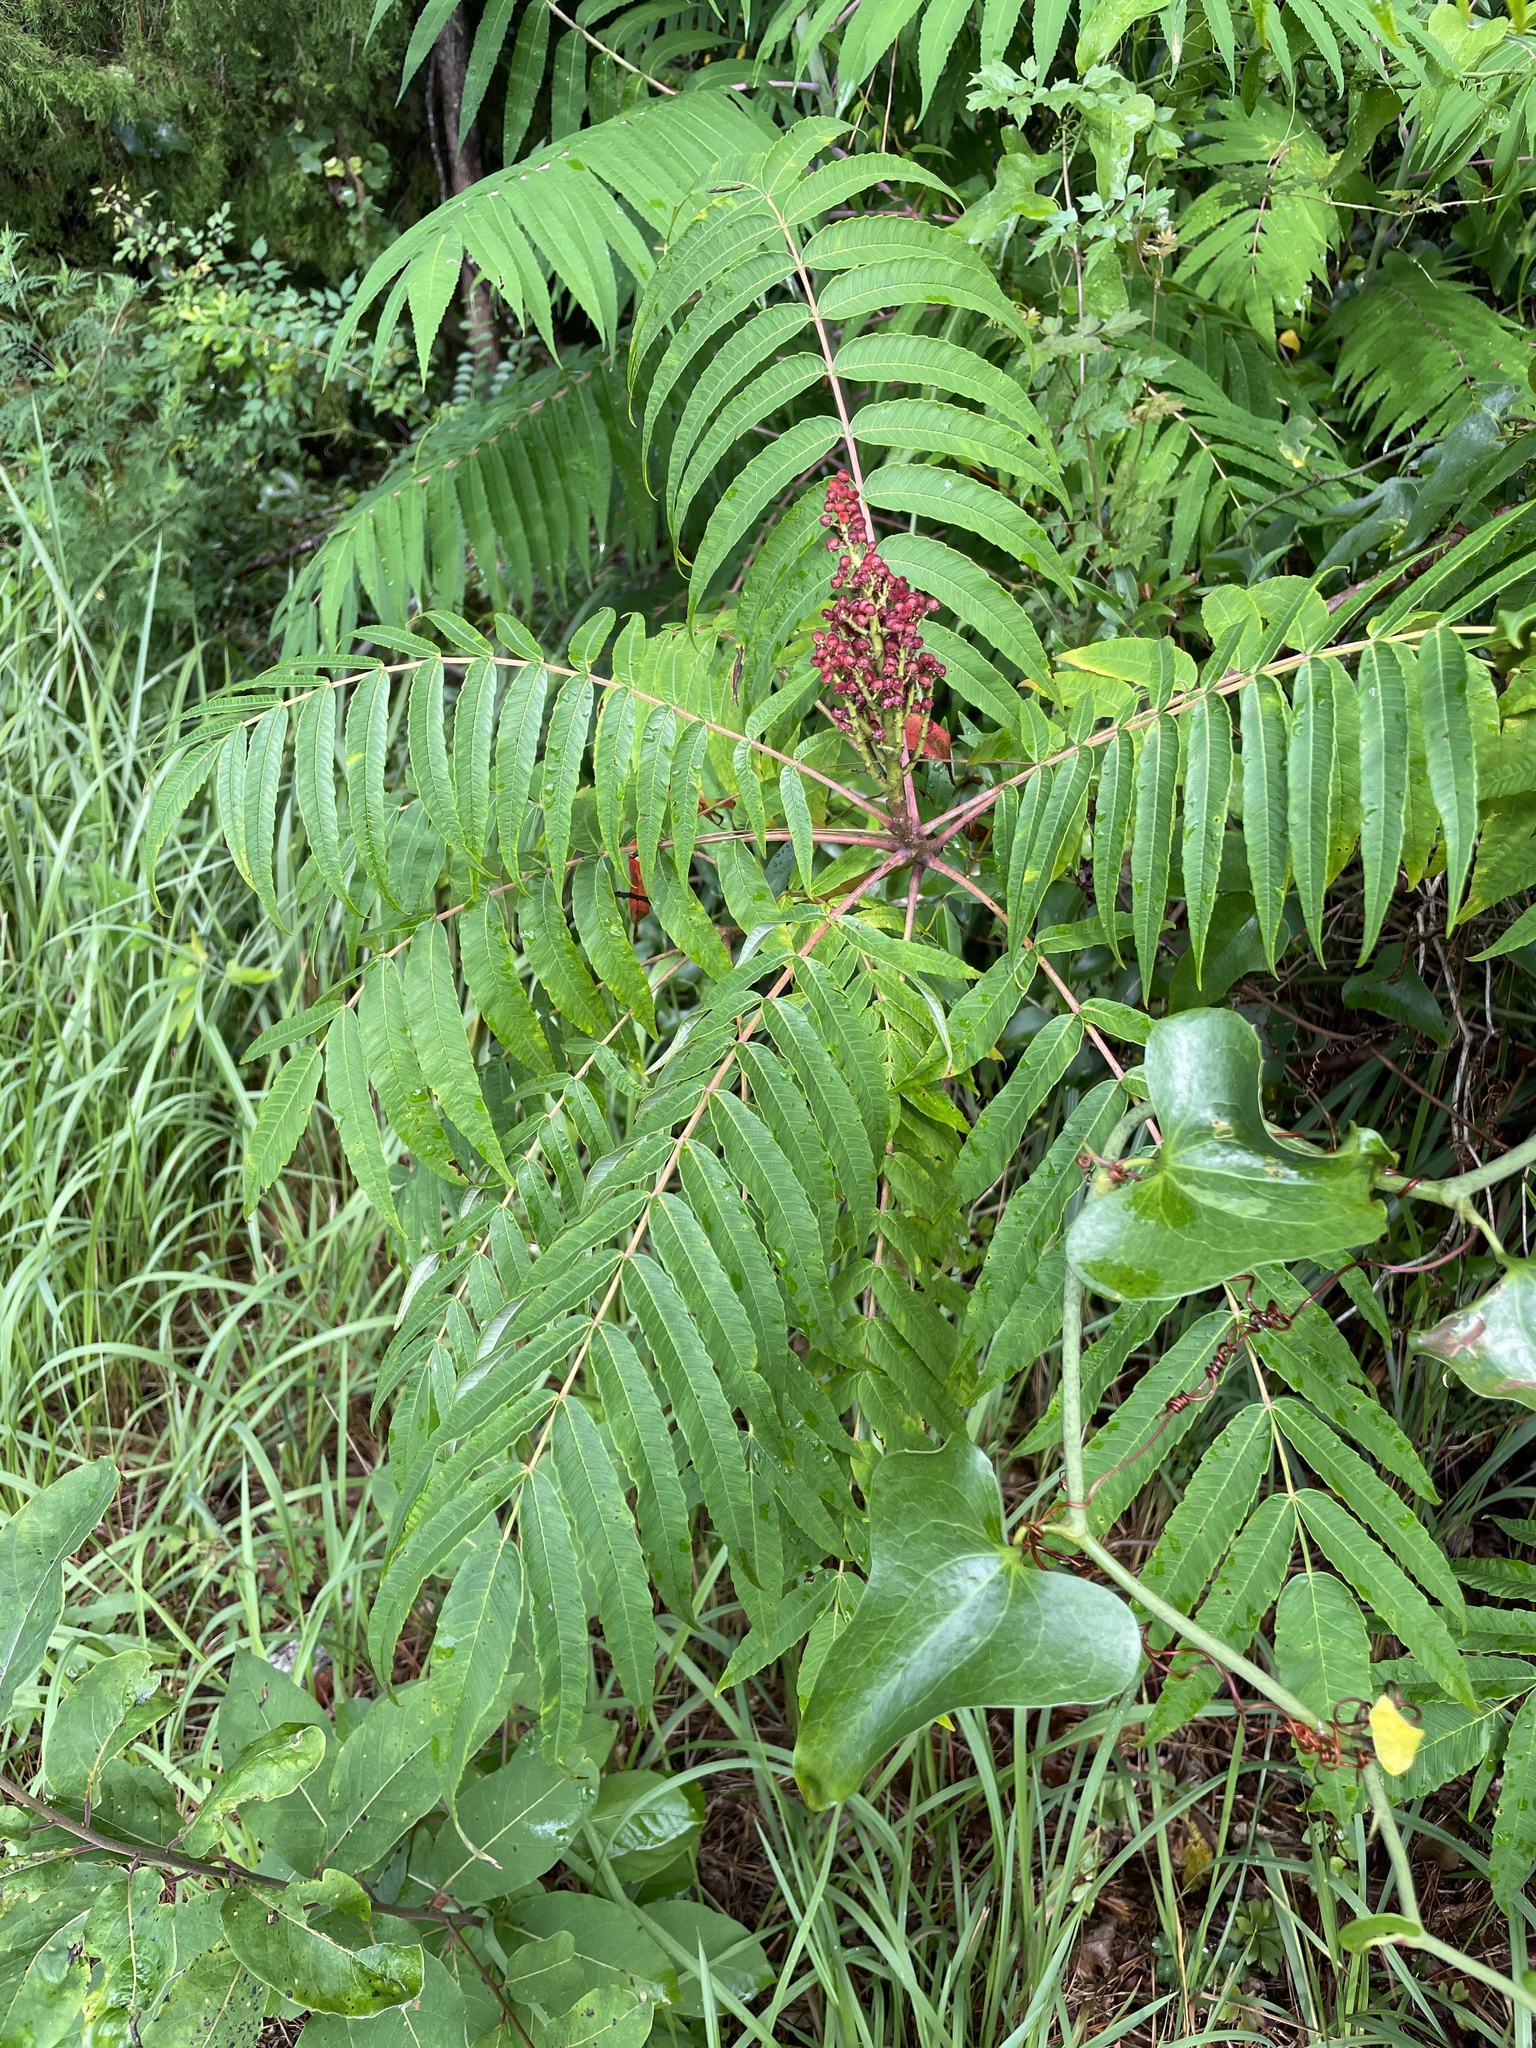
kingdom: Plantae
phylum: Tracheophyta
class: Magnoliopsida
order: Sapindales
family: Anacardiaceae
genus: Rhus
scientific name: Rhus glabra
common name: Scarlet sumac
